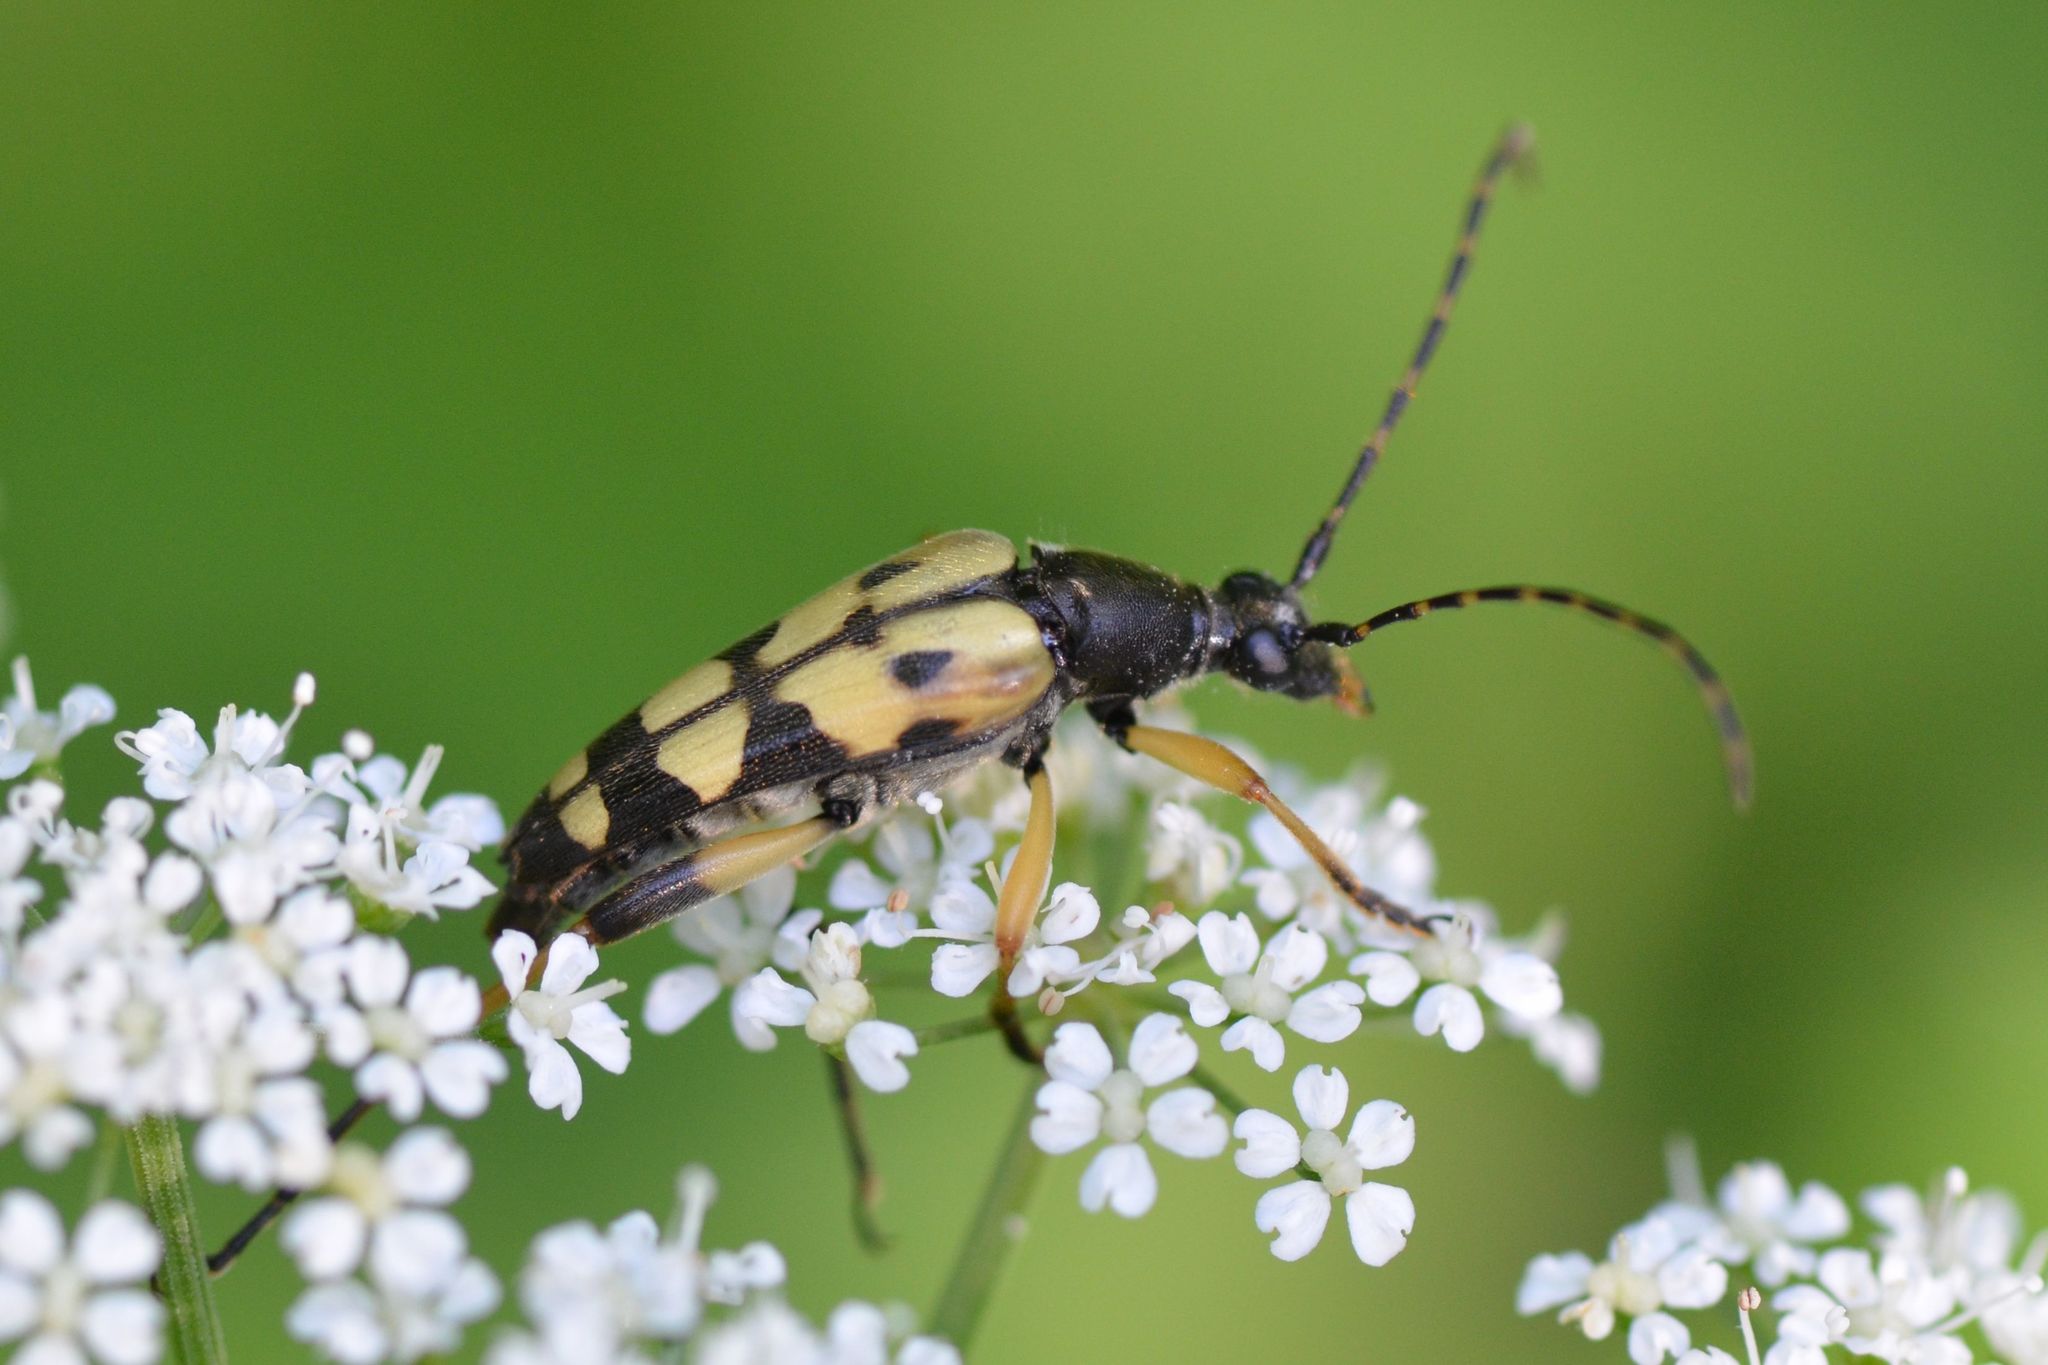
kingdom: Animalia
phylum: Arthropoda
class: Insecta
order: Coleoptera
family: Cerambycidae
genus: Rutpela
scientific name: Rutpela maculata
